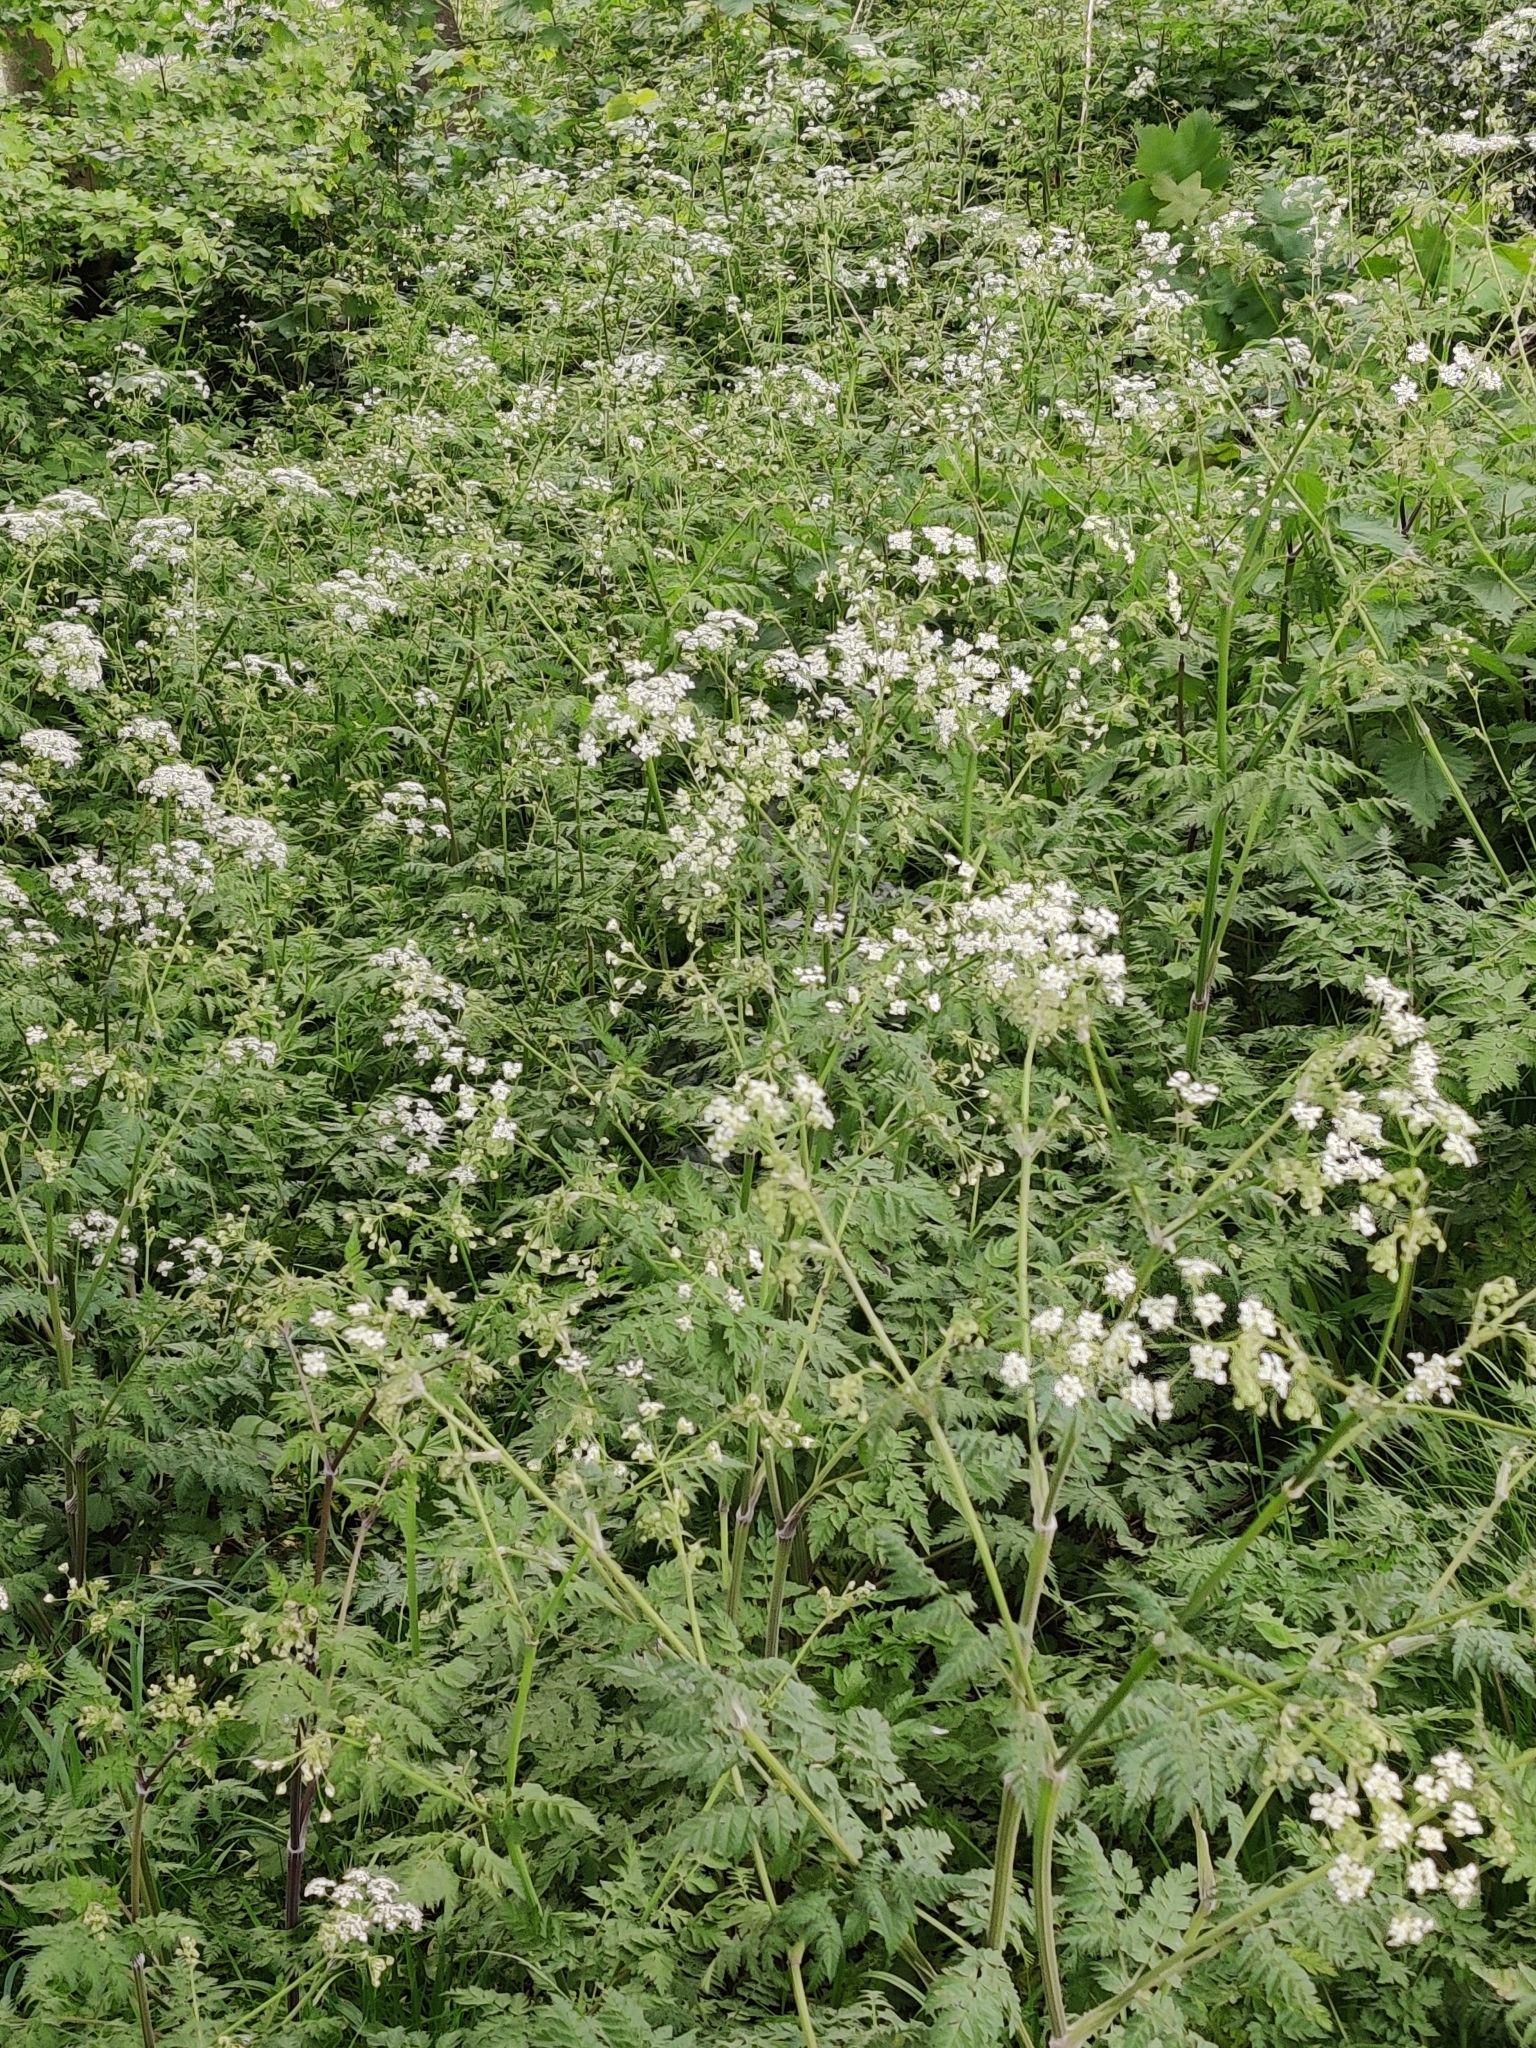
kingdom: Plantae
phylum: Tracheophyta
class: Magnoliopsida
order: Apiales
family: Apiaceae
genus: Anthriscus
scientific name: Anthriscus sylvestris
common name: Cow parsley
